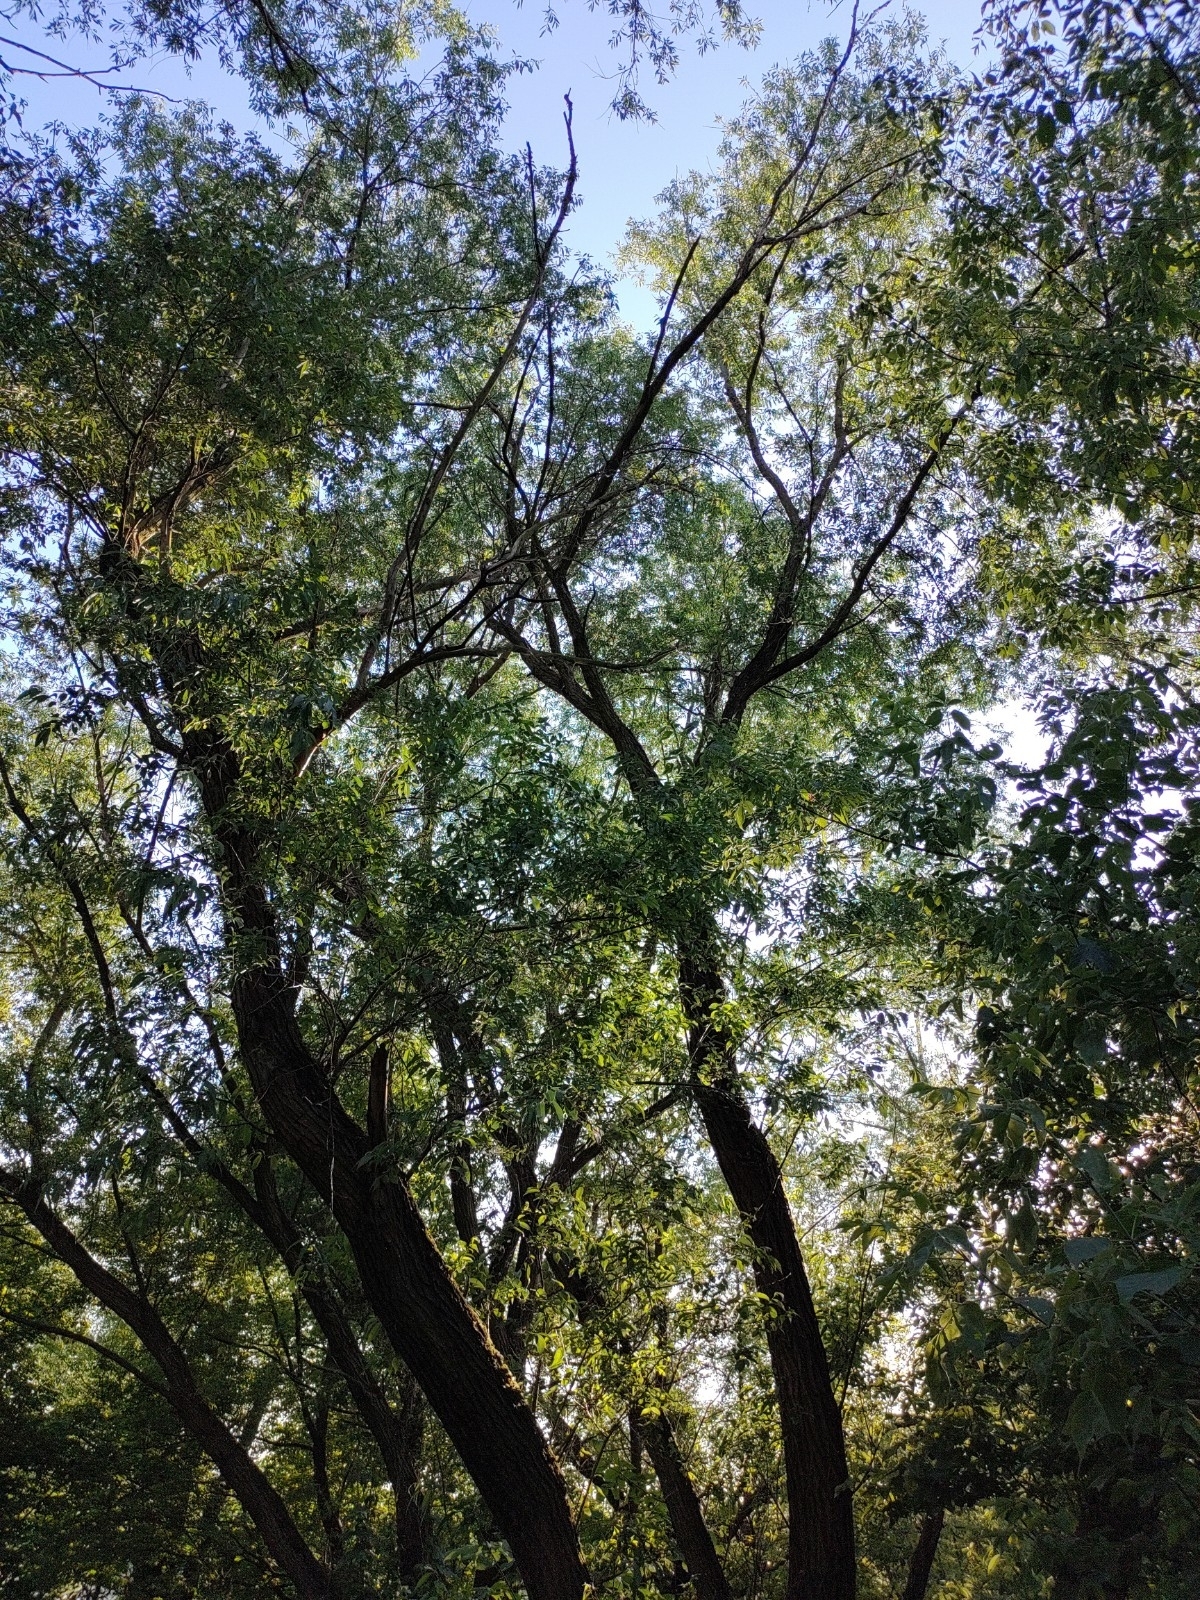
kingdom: Animalia
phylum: Chordata
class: Aves
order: Passeriformes
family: Fringillidae
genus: Fringilla
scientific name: Fringilla coelebs
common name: Common chaffinch
